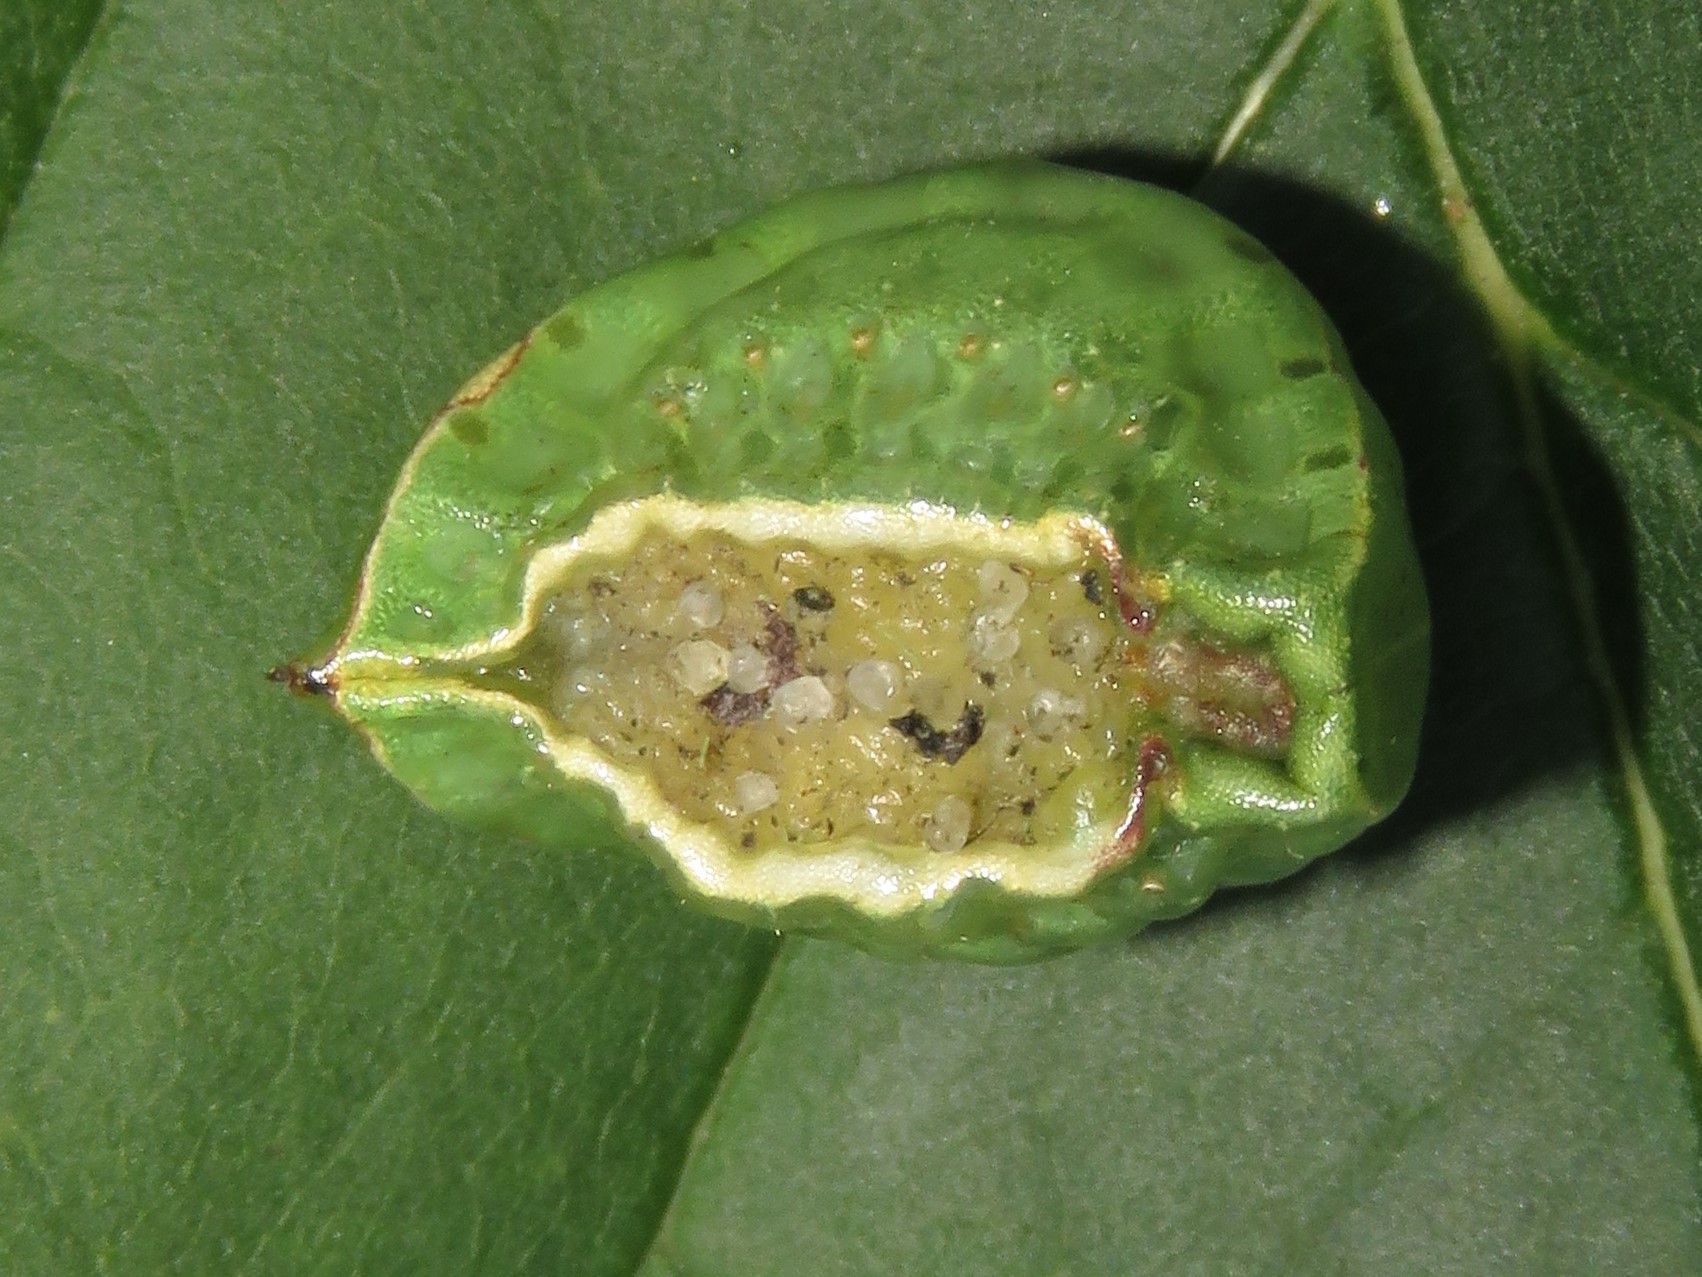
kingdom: Animalia
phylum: Arthropoda
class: Insecta
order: Lepidoptera
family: Limacodidae
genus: Prolimacodes
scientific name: Prolimacodes badia
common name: Skiff moth
